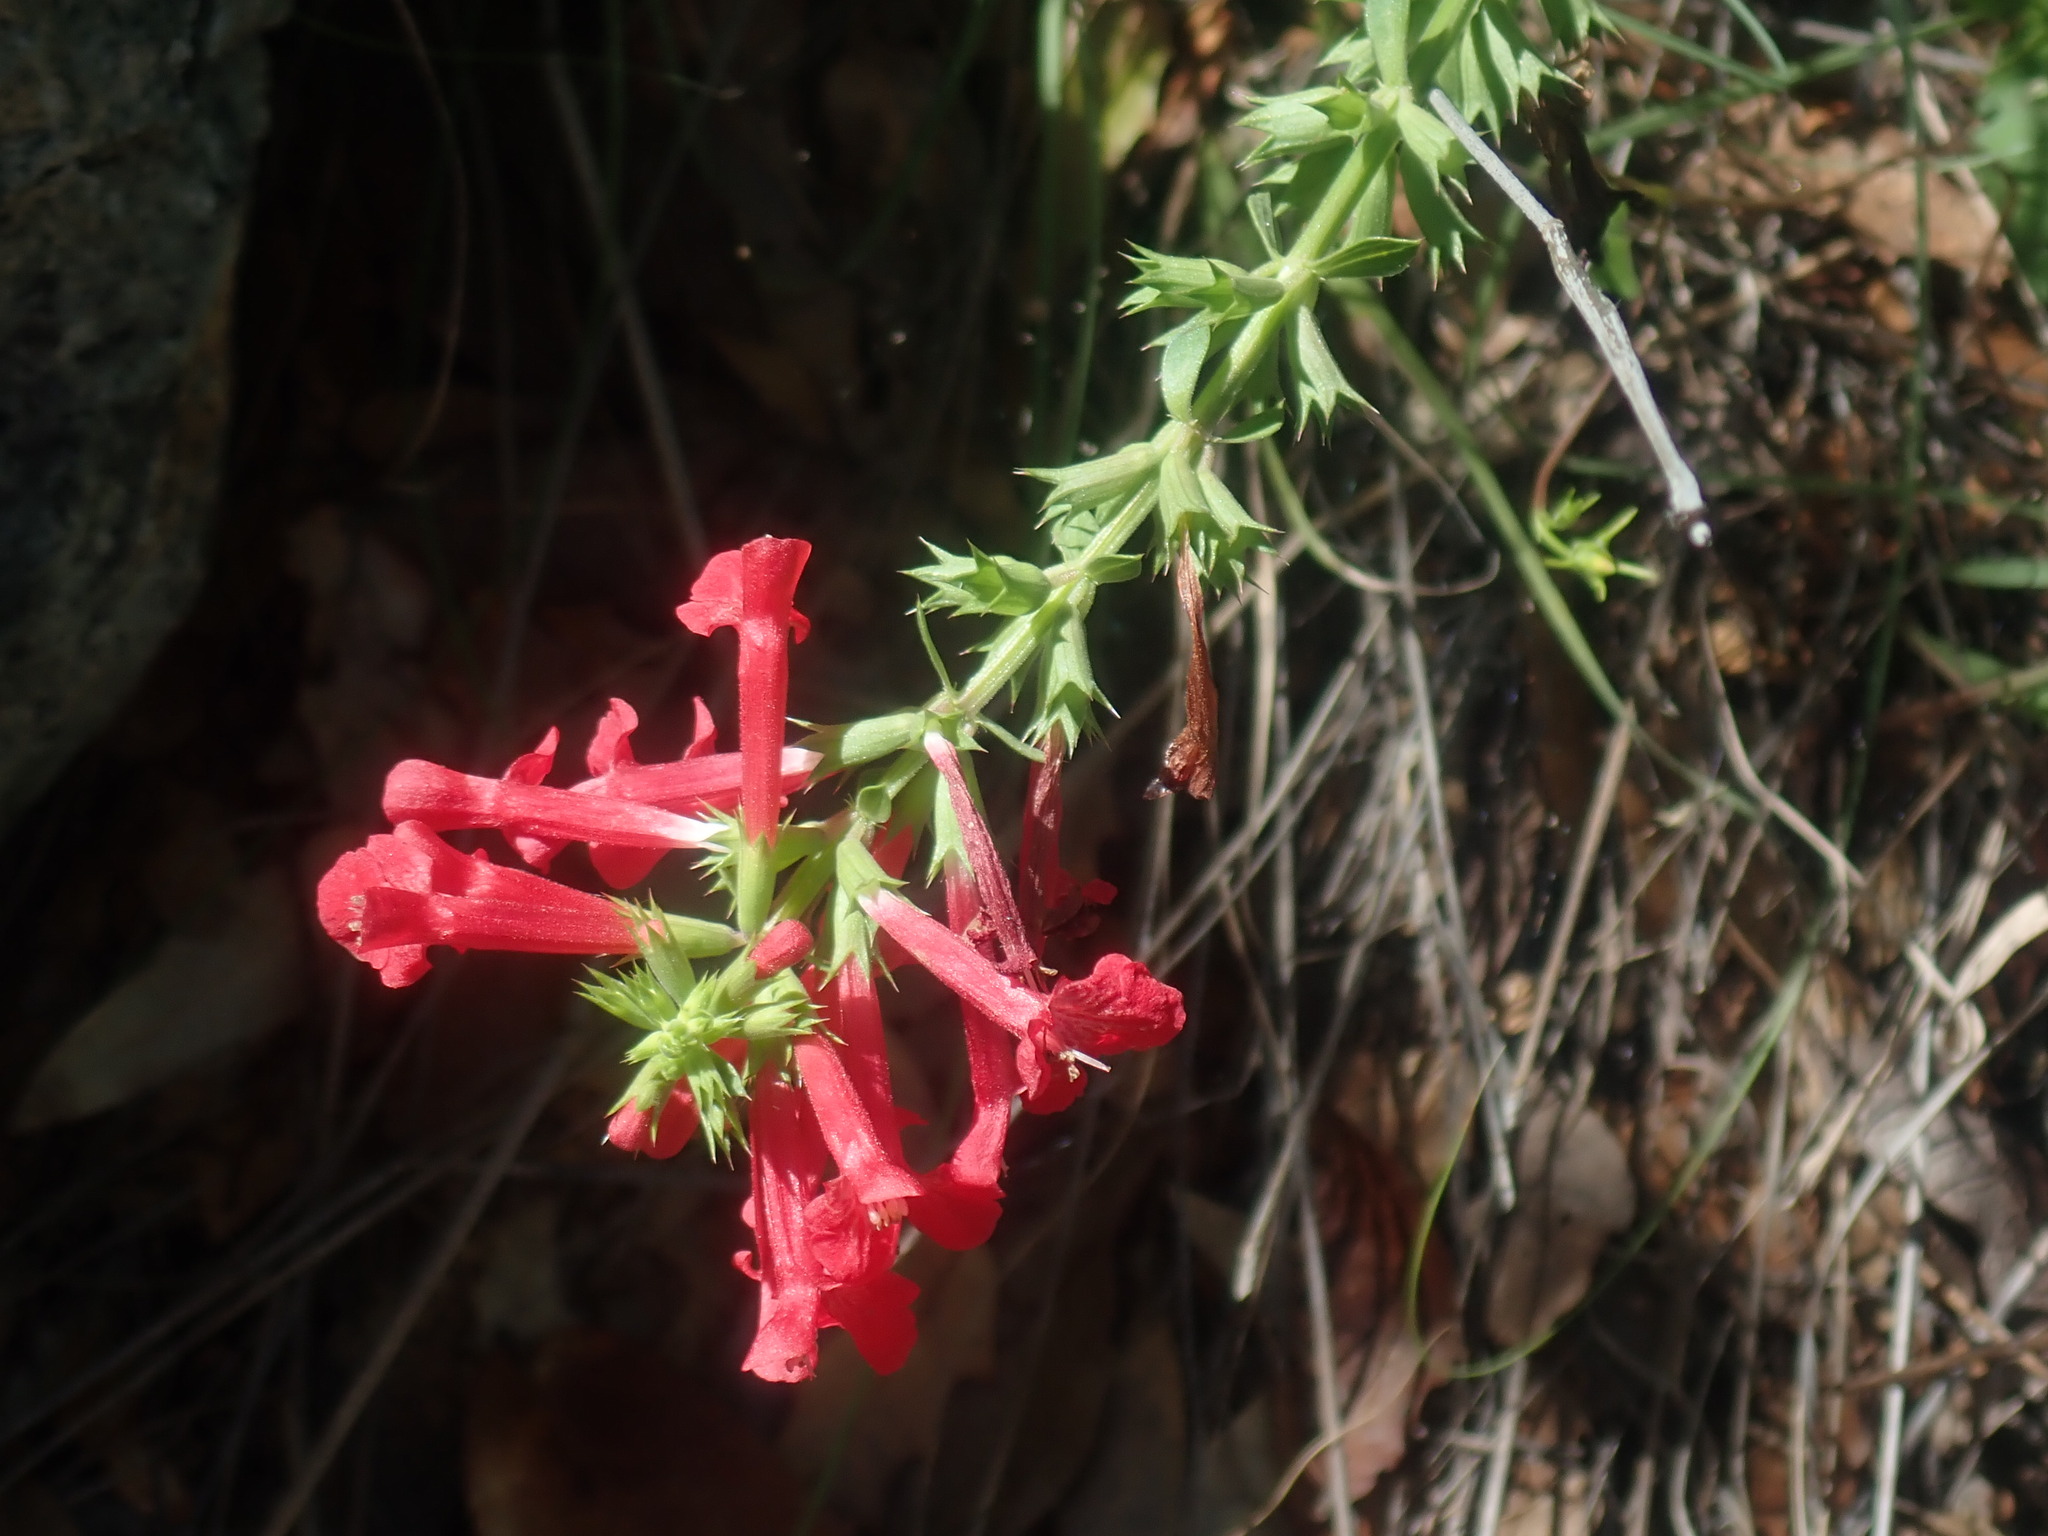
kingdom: Plantae
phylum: Tracheophyta
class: Magnoliopsida
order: Lamiales
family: Lamiaceae
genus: Stachys
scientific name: Stachys coccinea
